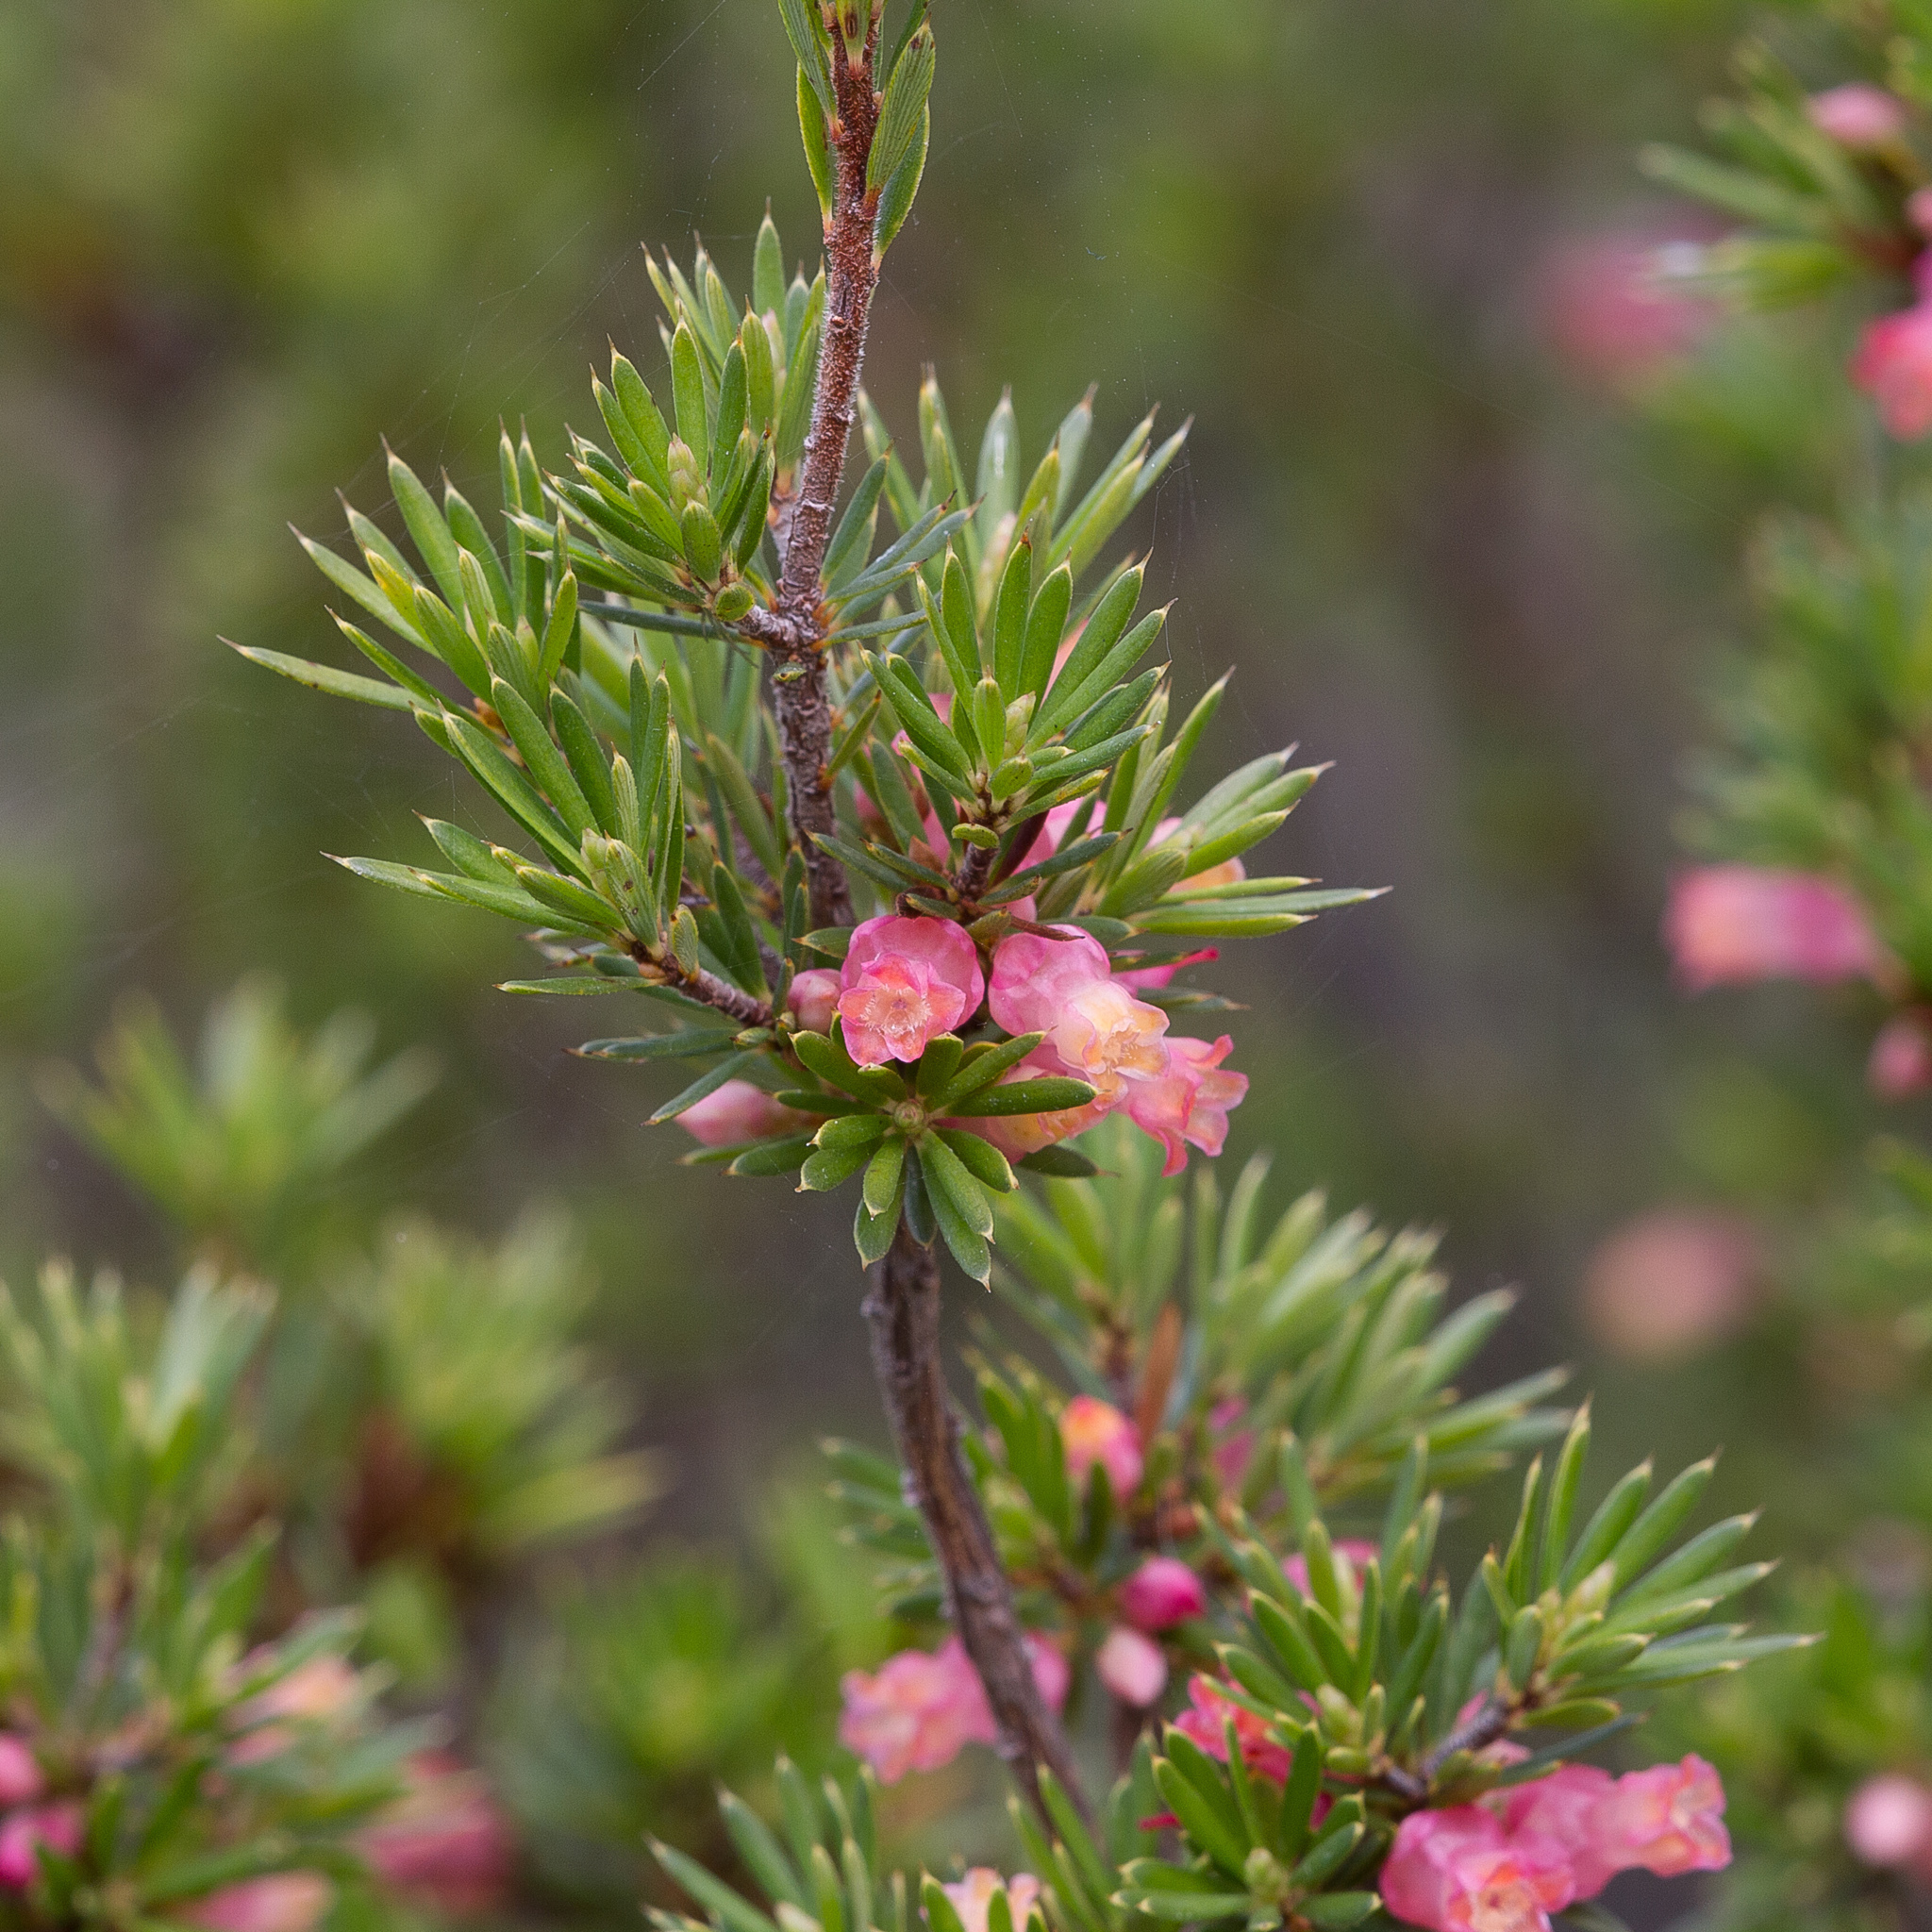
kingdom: Plantae
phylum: Tracheophyta
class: Magnoliopsida
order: Ericales
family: Ericaceae
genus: Brachyloma
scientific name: Brachyloma ericoides
